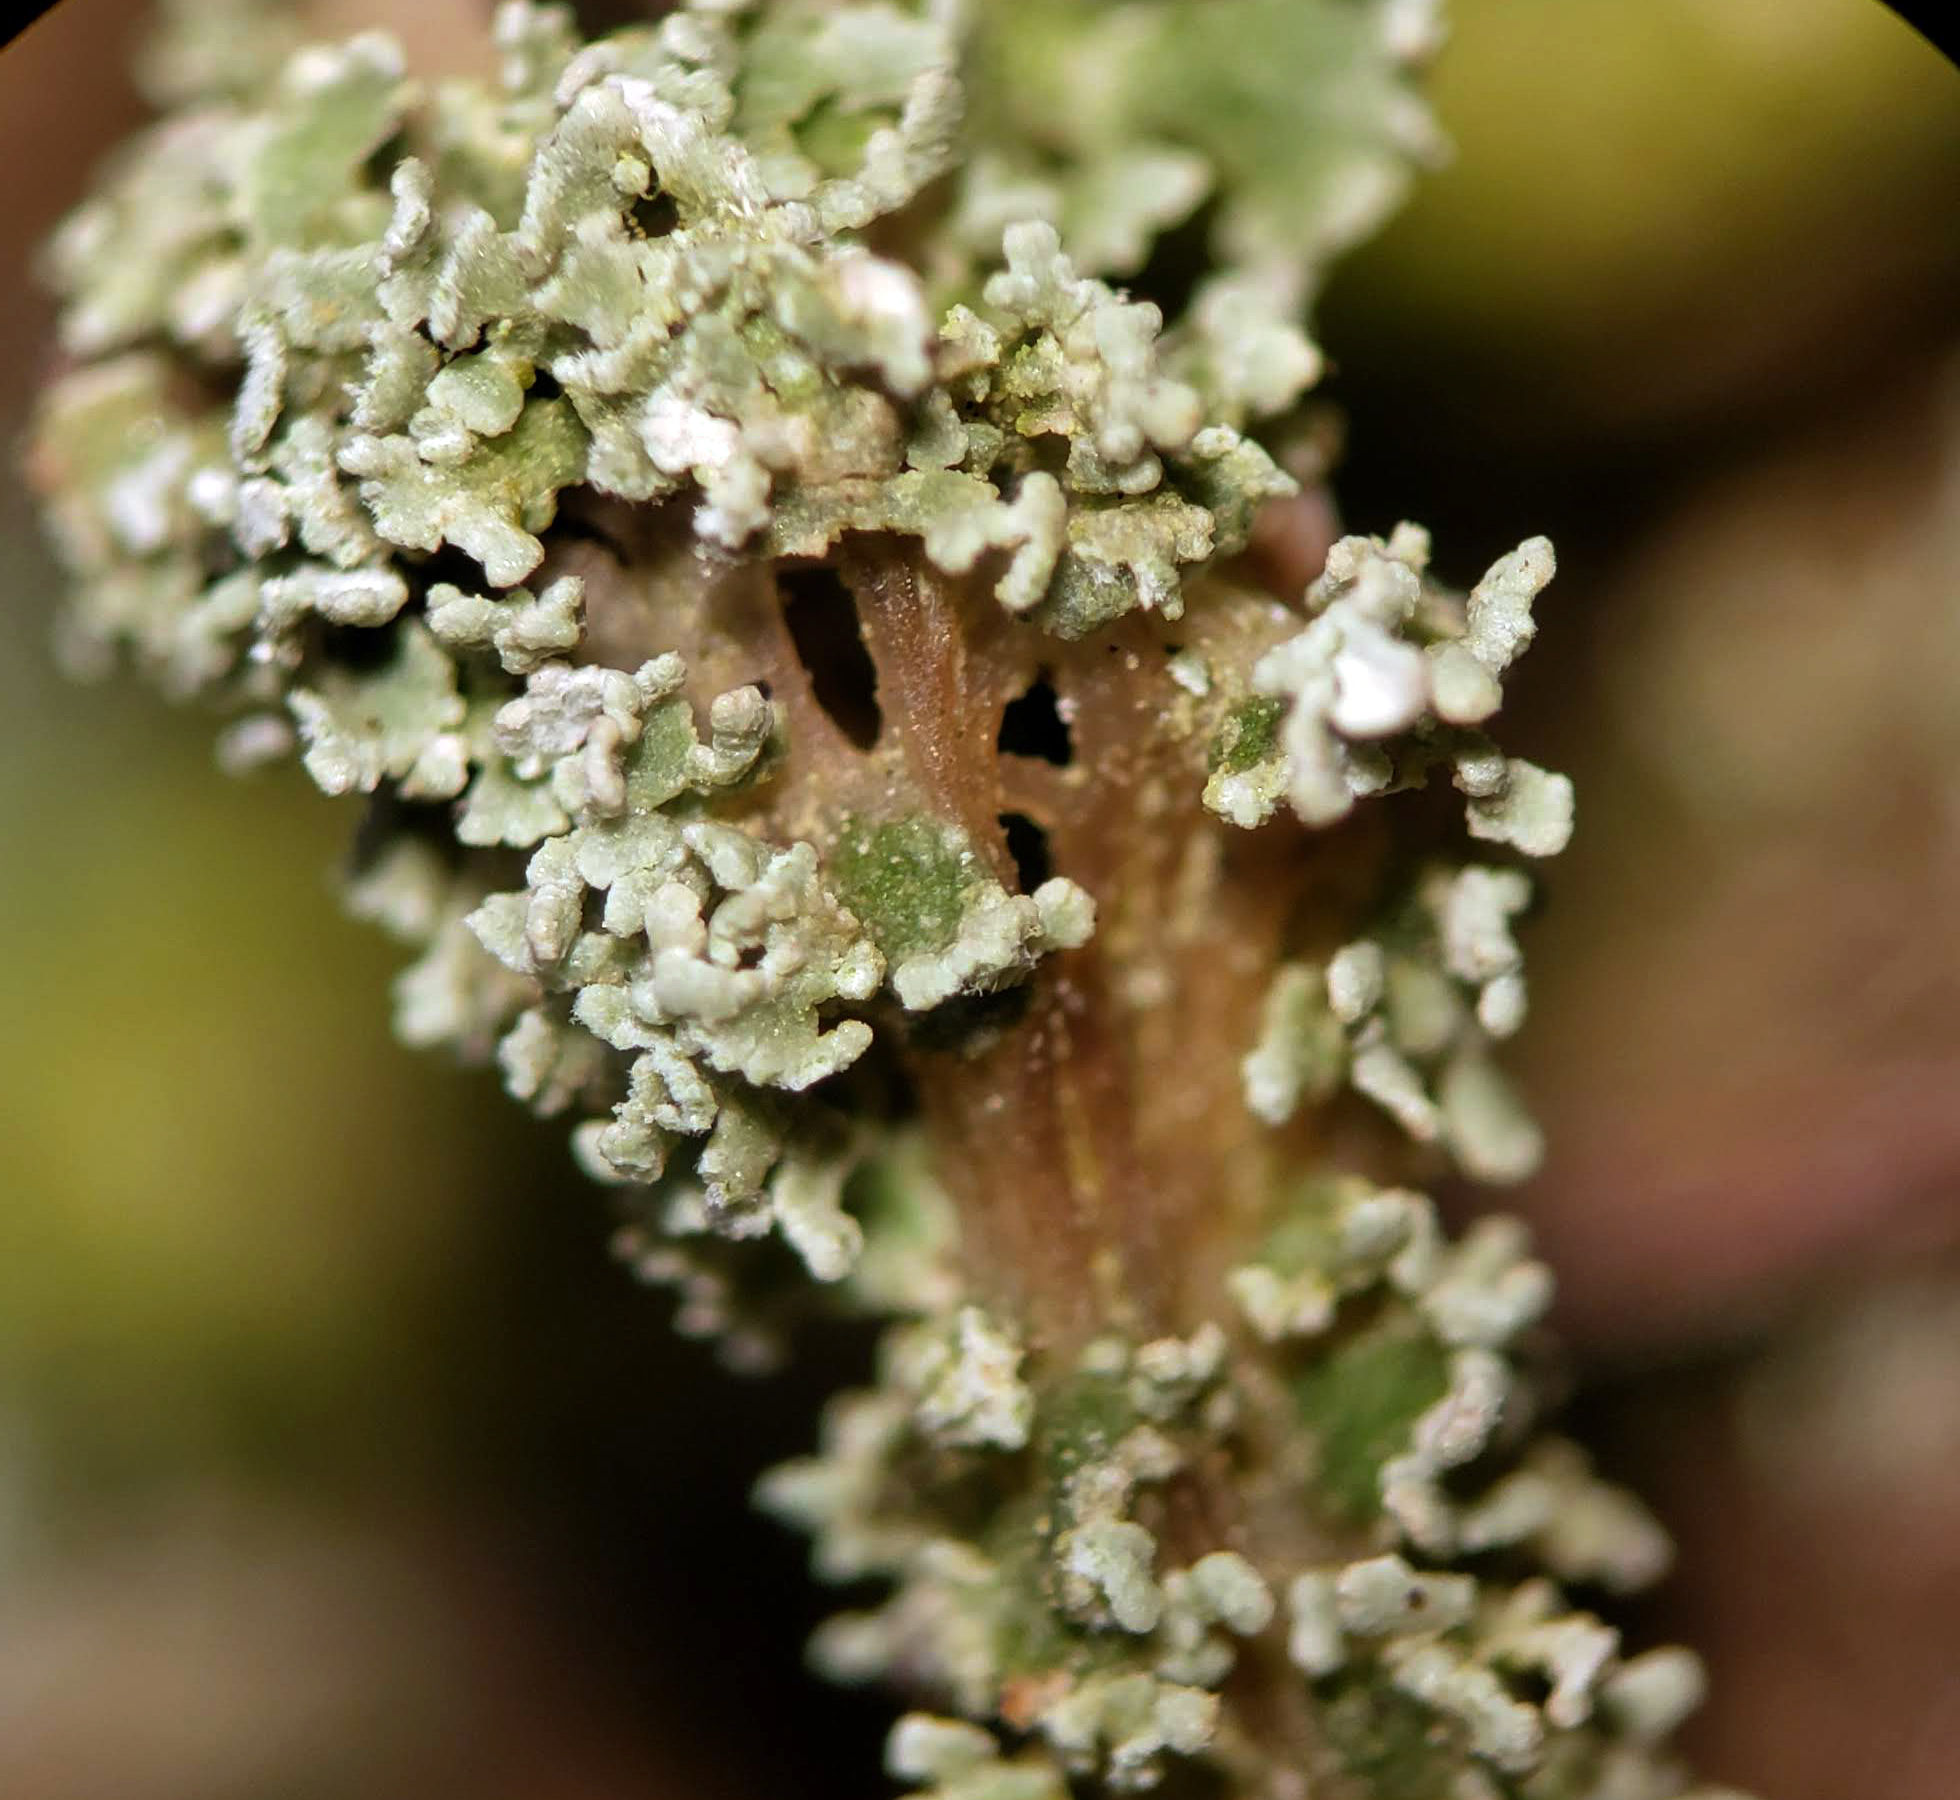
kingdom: Fungi
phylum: Ascomycota
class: Lecanoromycetes
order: Lecanorales
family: Cladoniaceae
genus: Cladonia
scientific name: Cladonia squamosa
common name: Dragon horn
